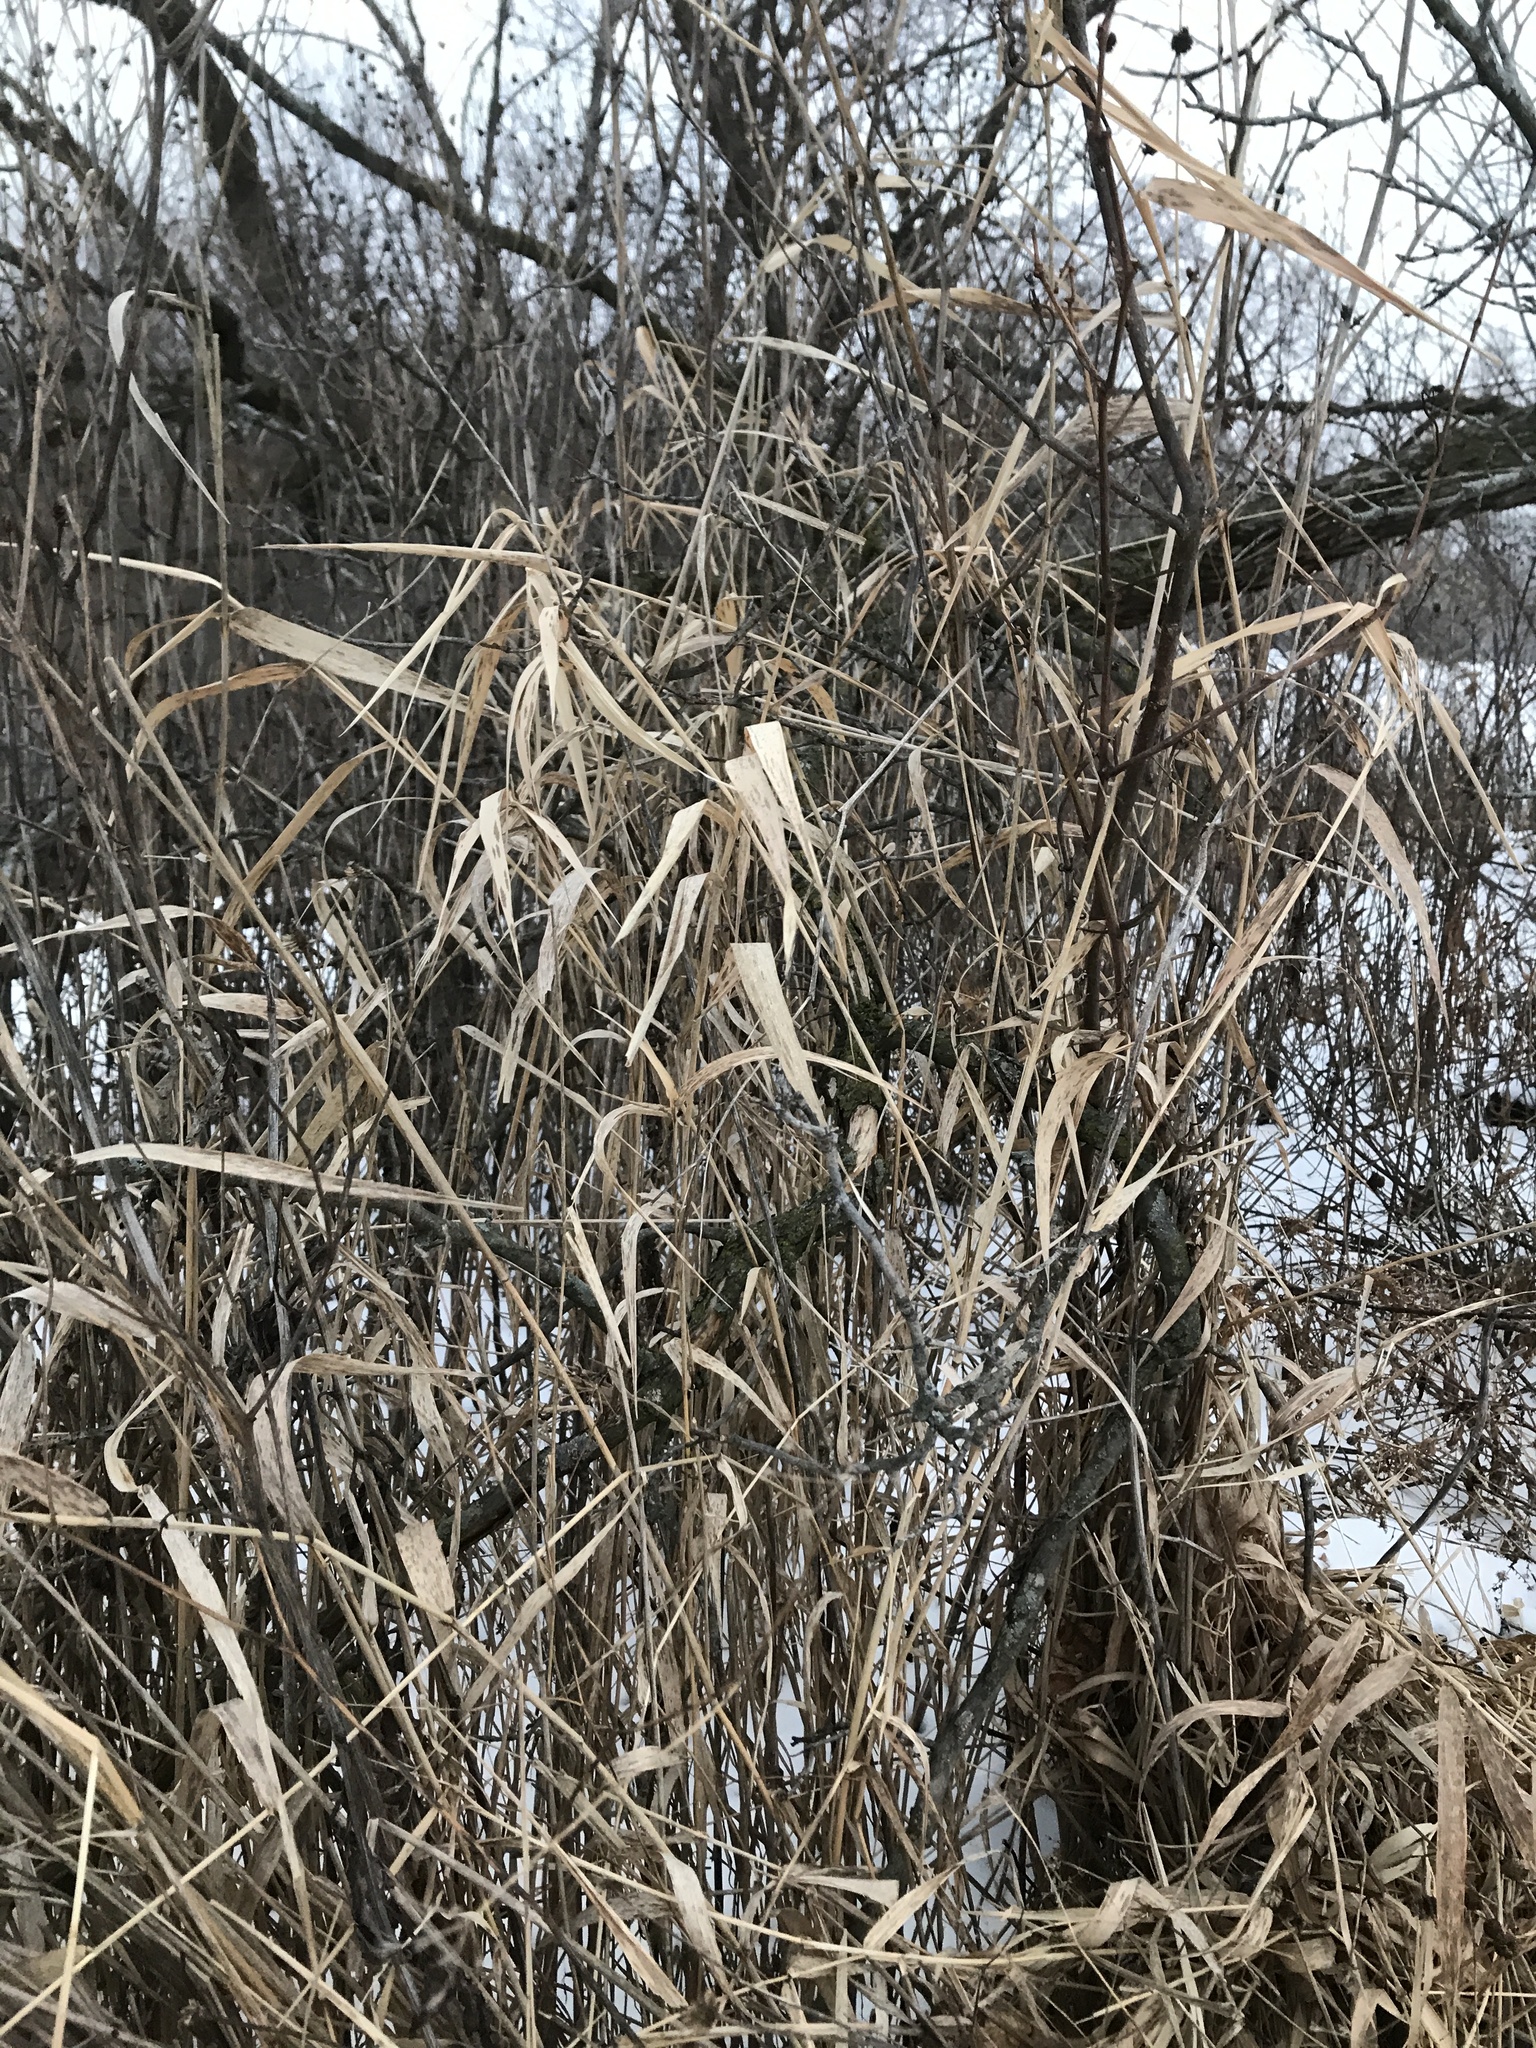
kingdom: Plantae
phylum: Tracheophyta
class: Liliopsida
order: Poales
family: Poaceae
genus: Phalaris
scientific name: Phalaris arundinacea
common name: Reed canary-grass
